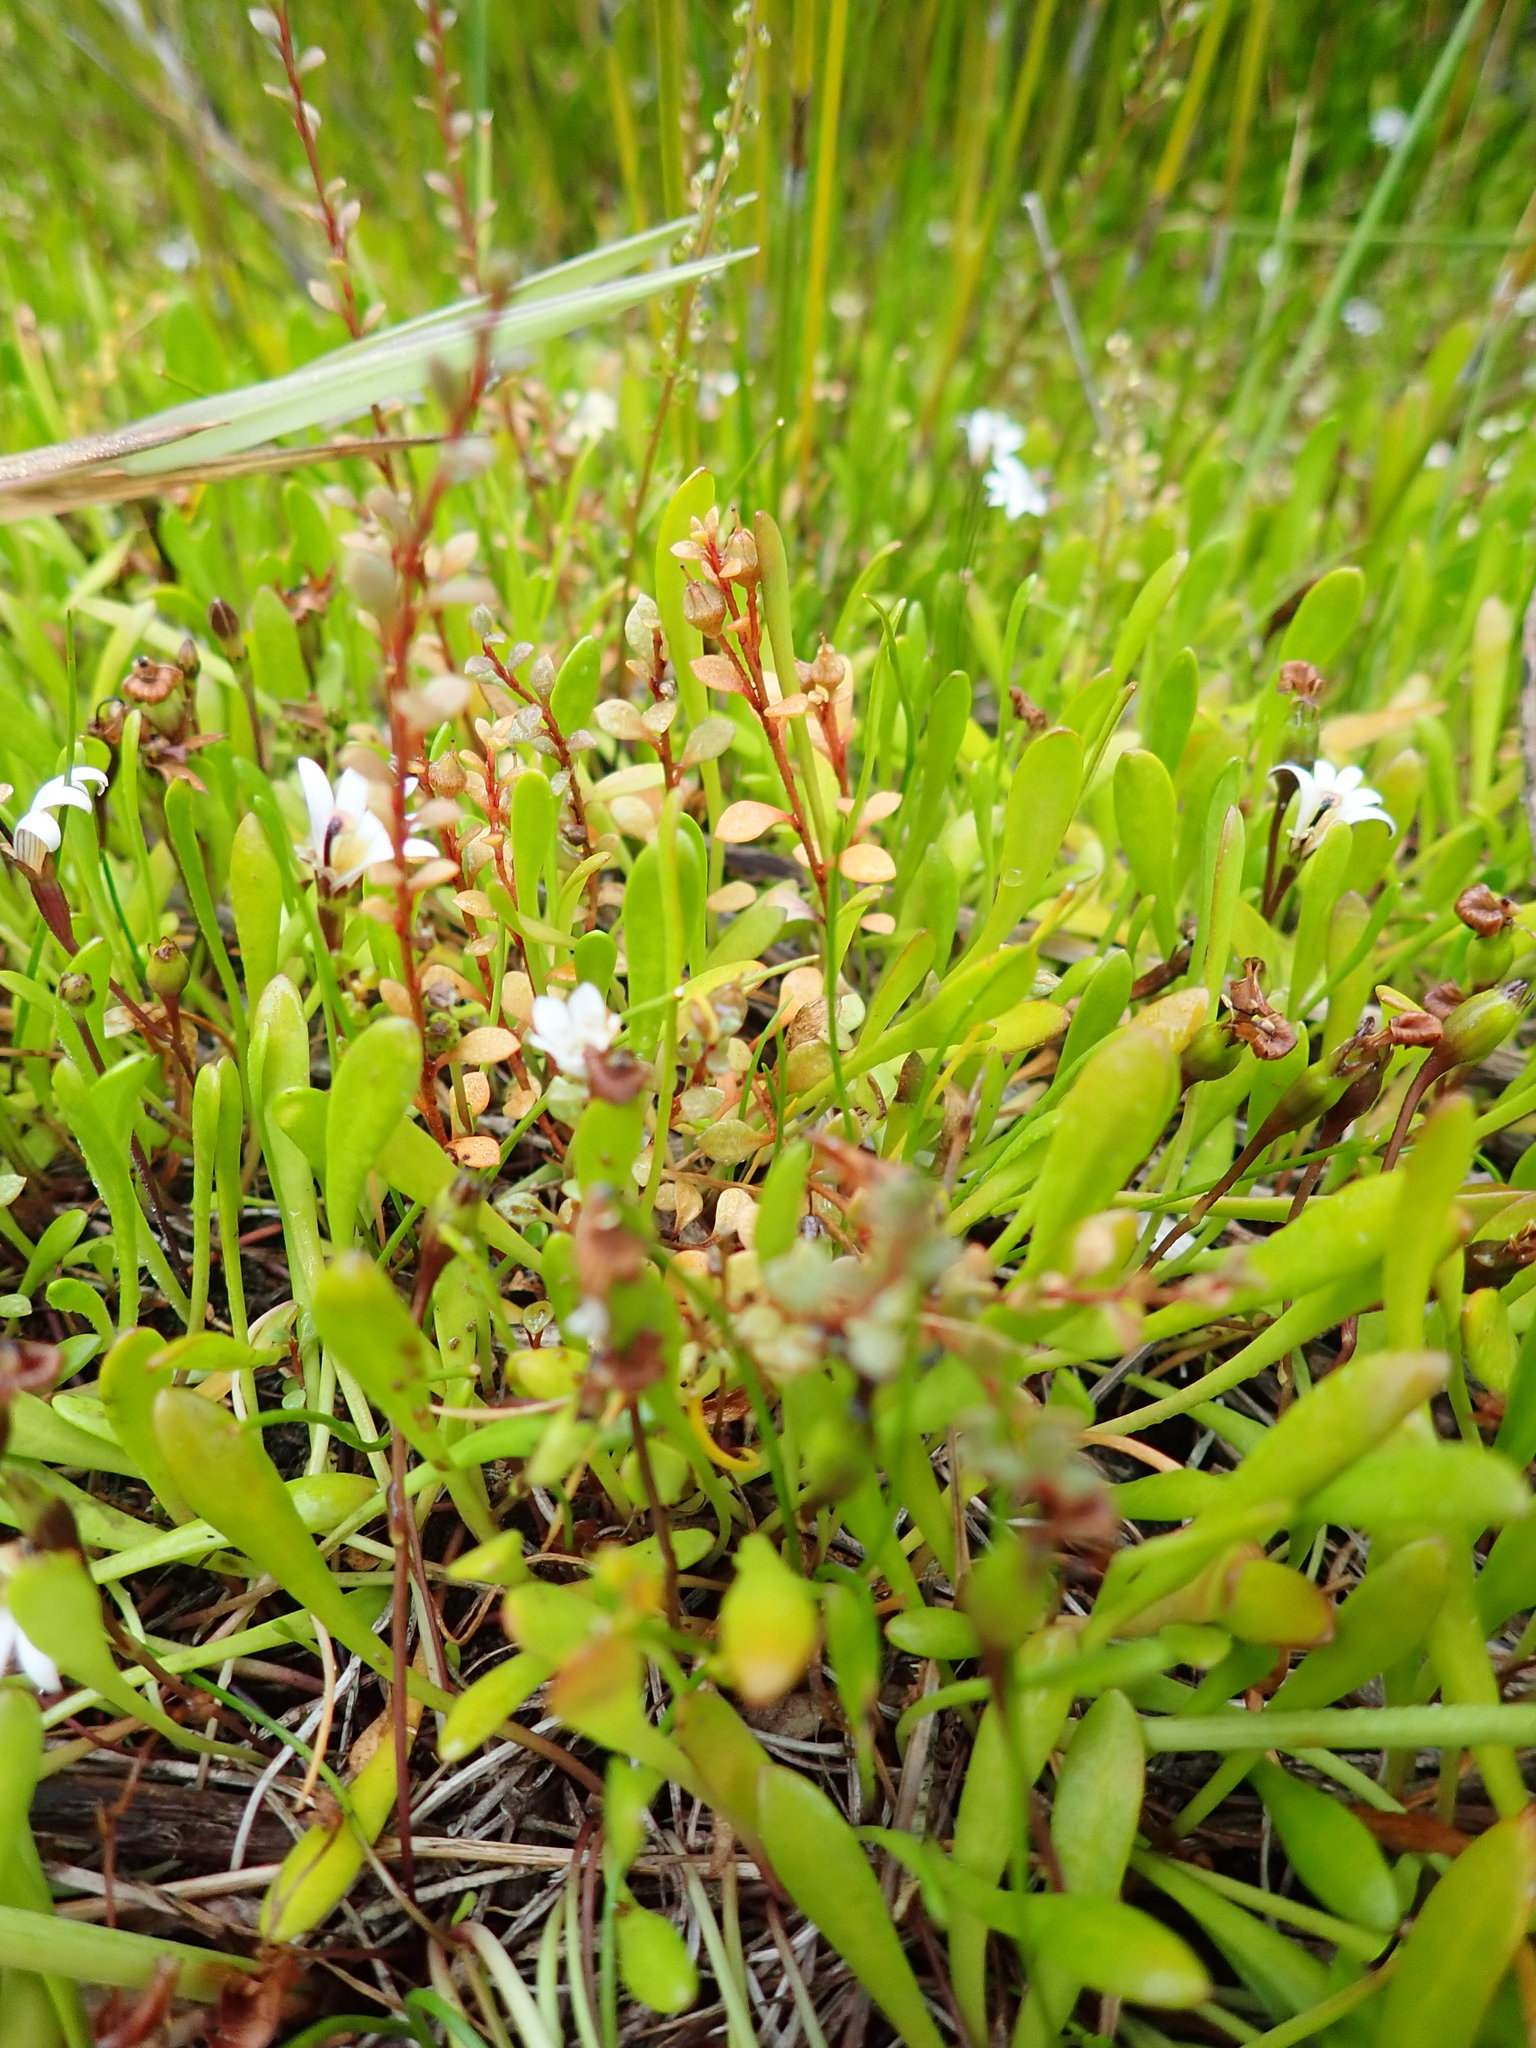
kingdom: Plantae
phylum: Tracheophyta
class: Magnoliopsida
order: Ericales
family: Primulaceae
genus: Samolus
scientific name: Samolus repens
